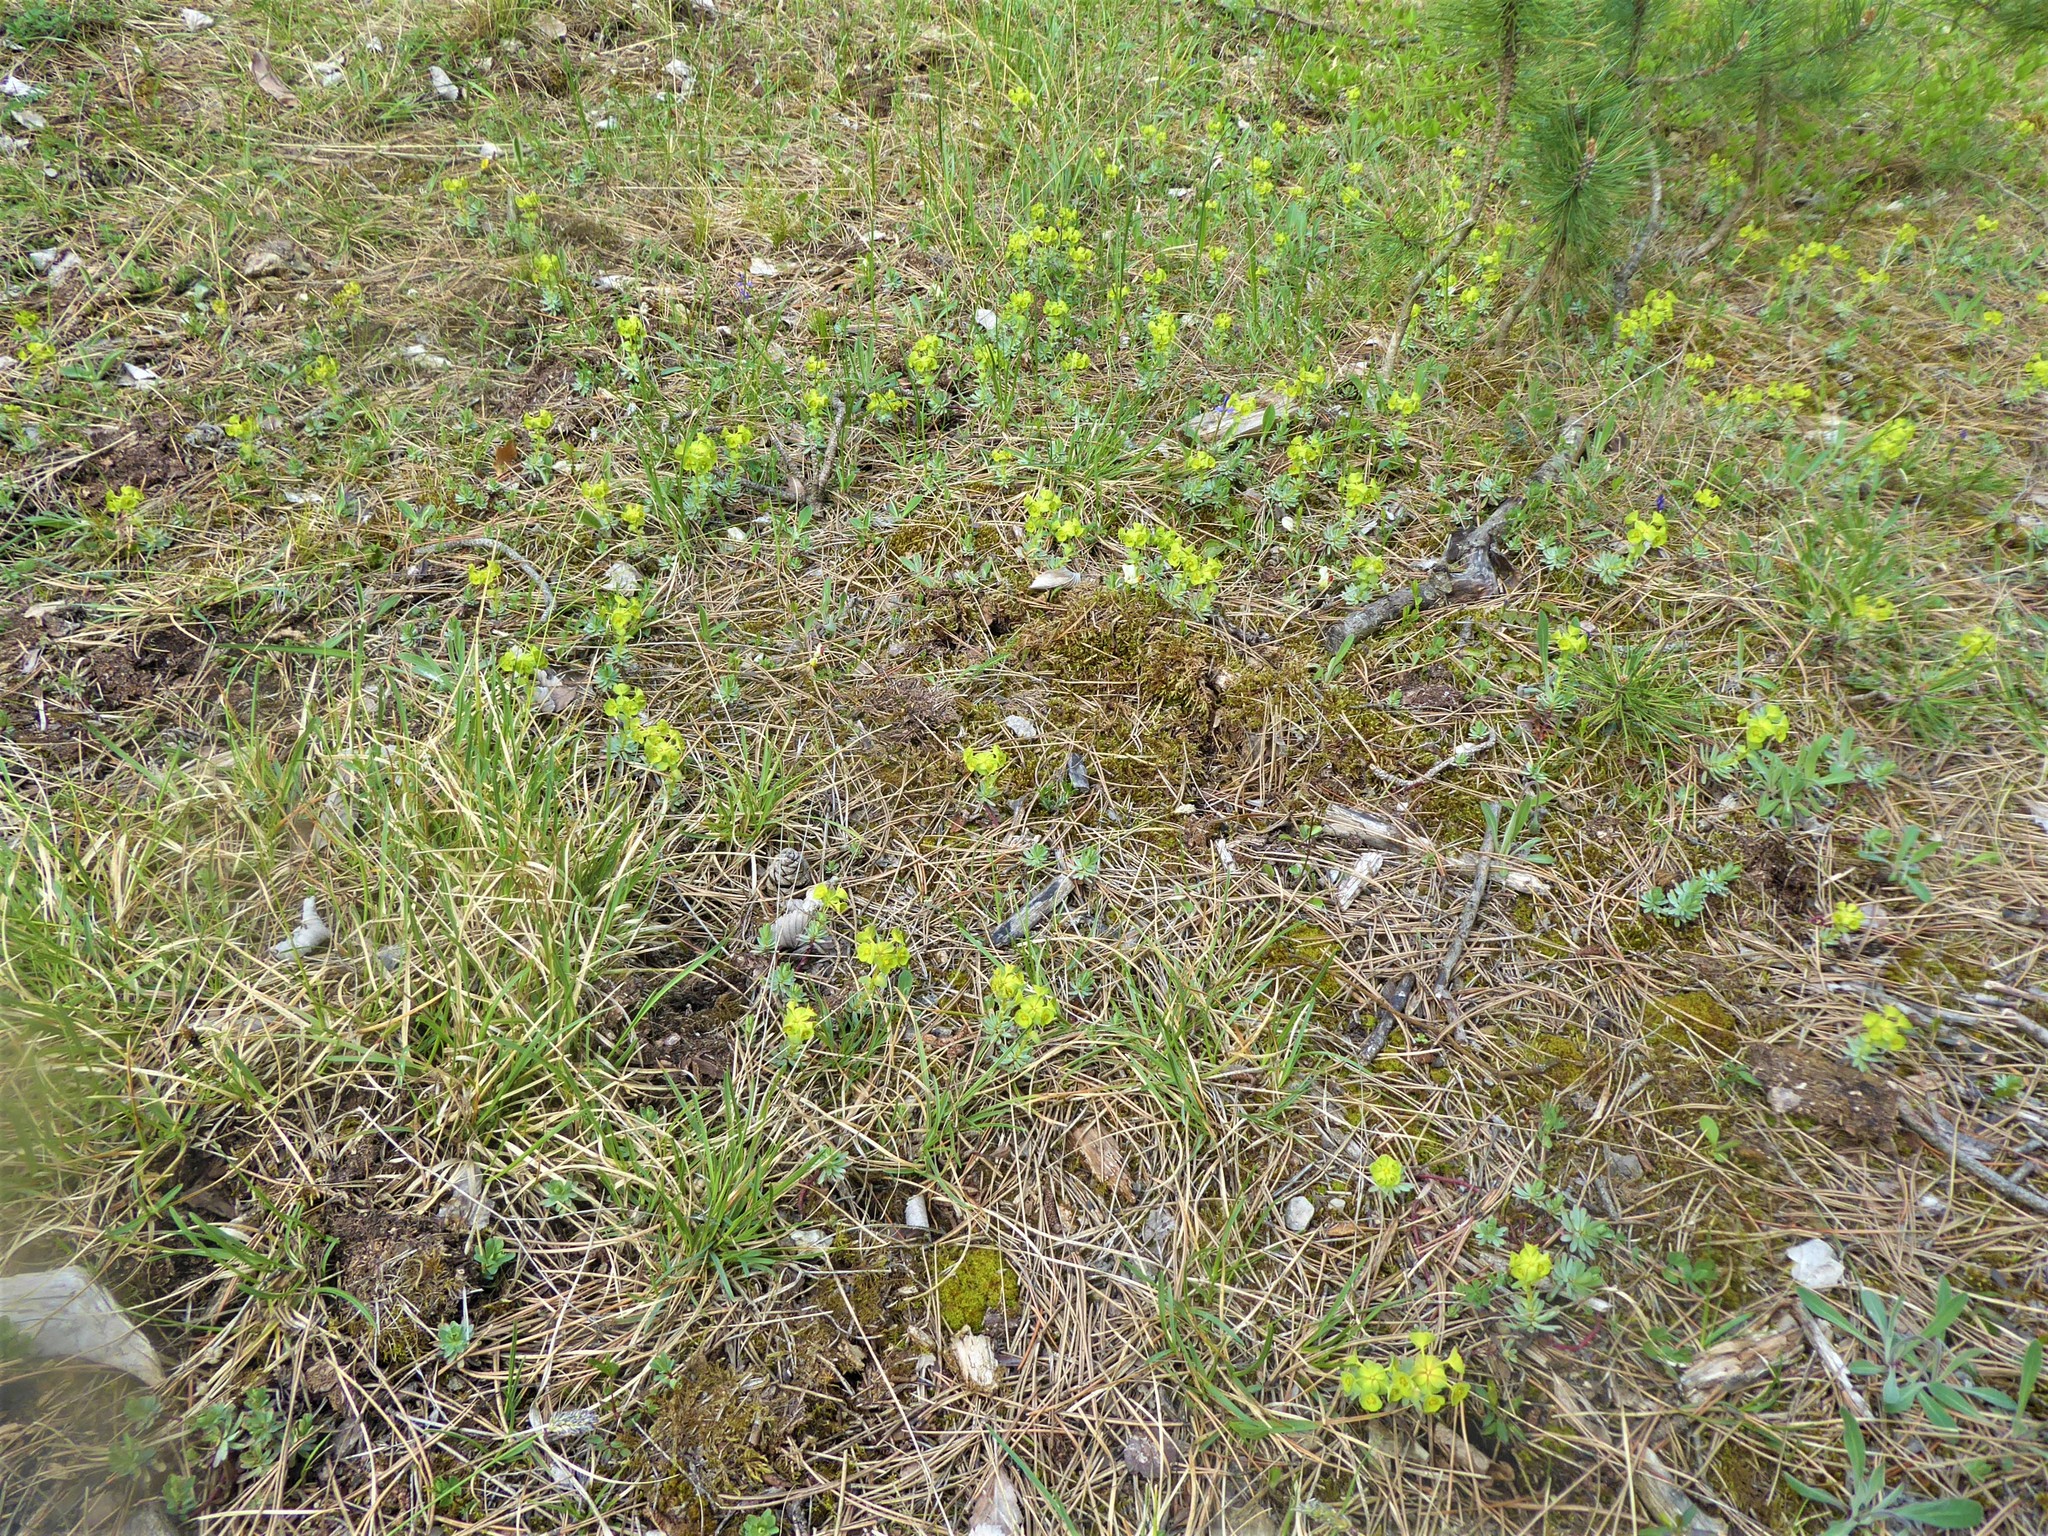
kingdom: Plantae
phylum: Tracheophyta
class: Magnoliopsida
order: Malpighiales
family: Euphorbiaceae
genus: Euphorbia
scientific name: Euphorbia saxatilis
